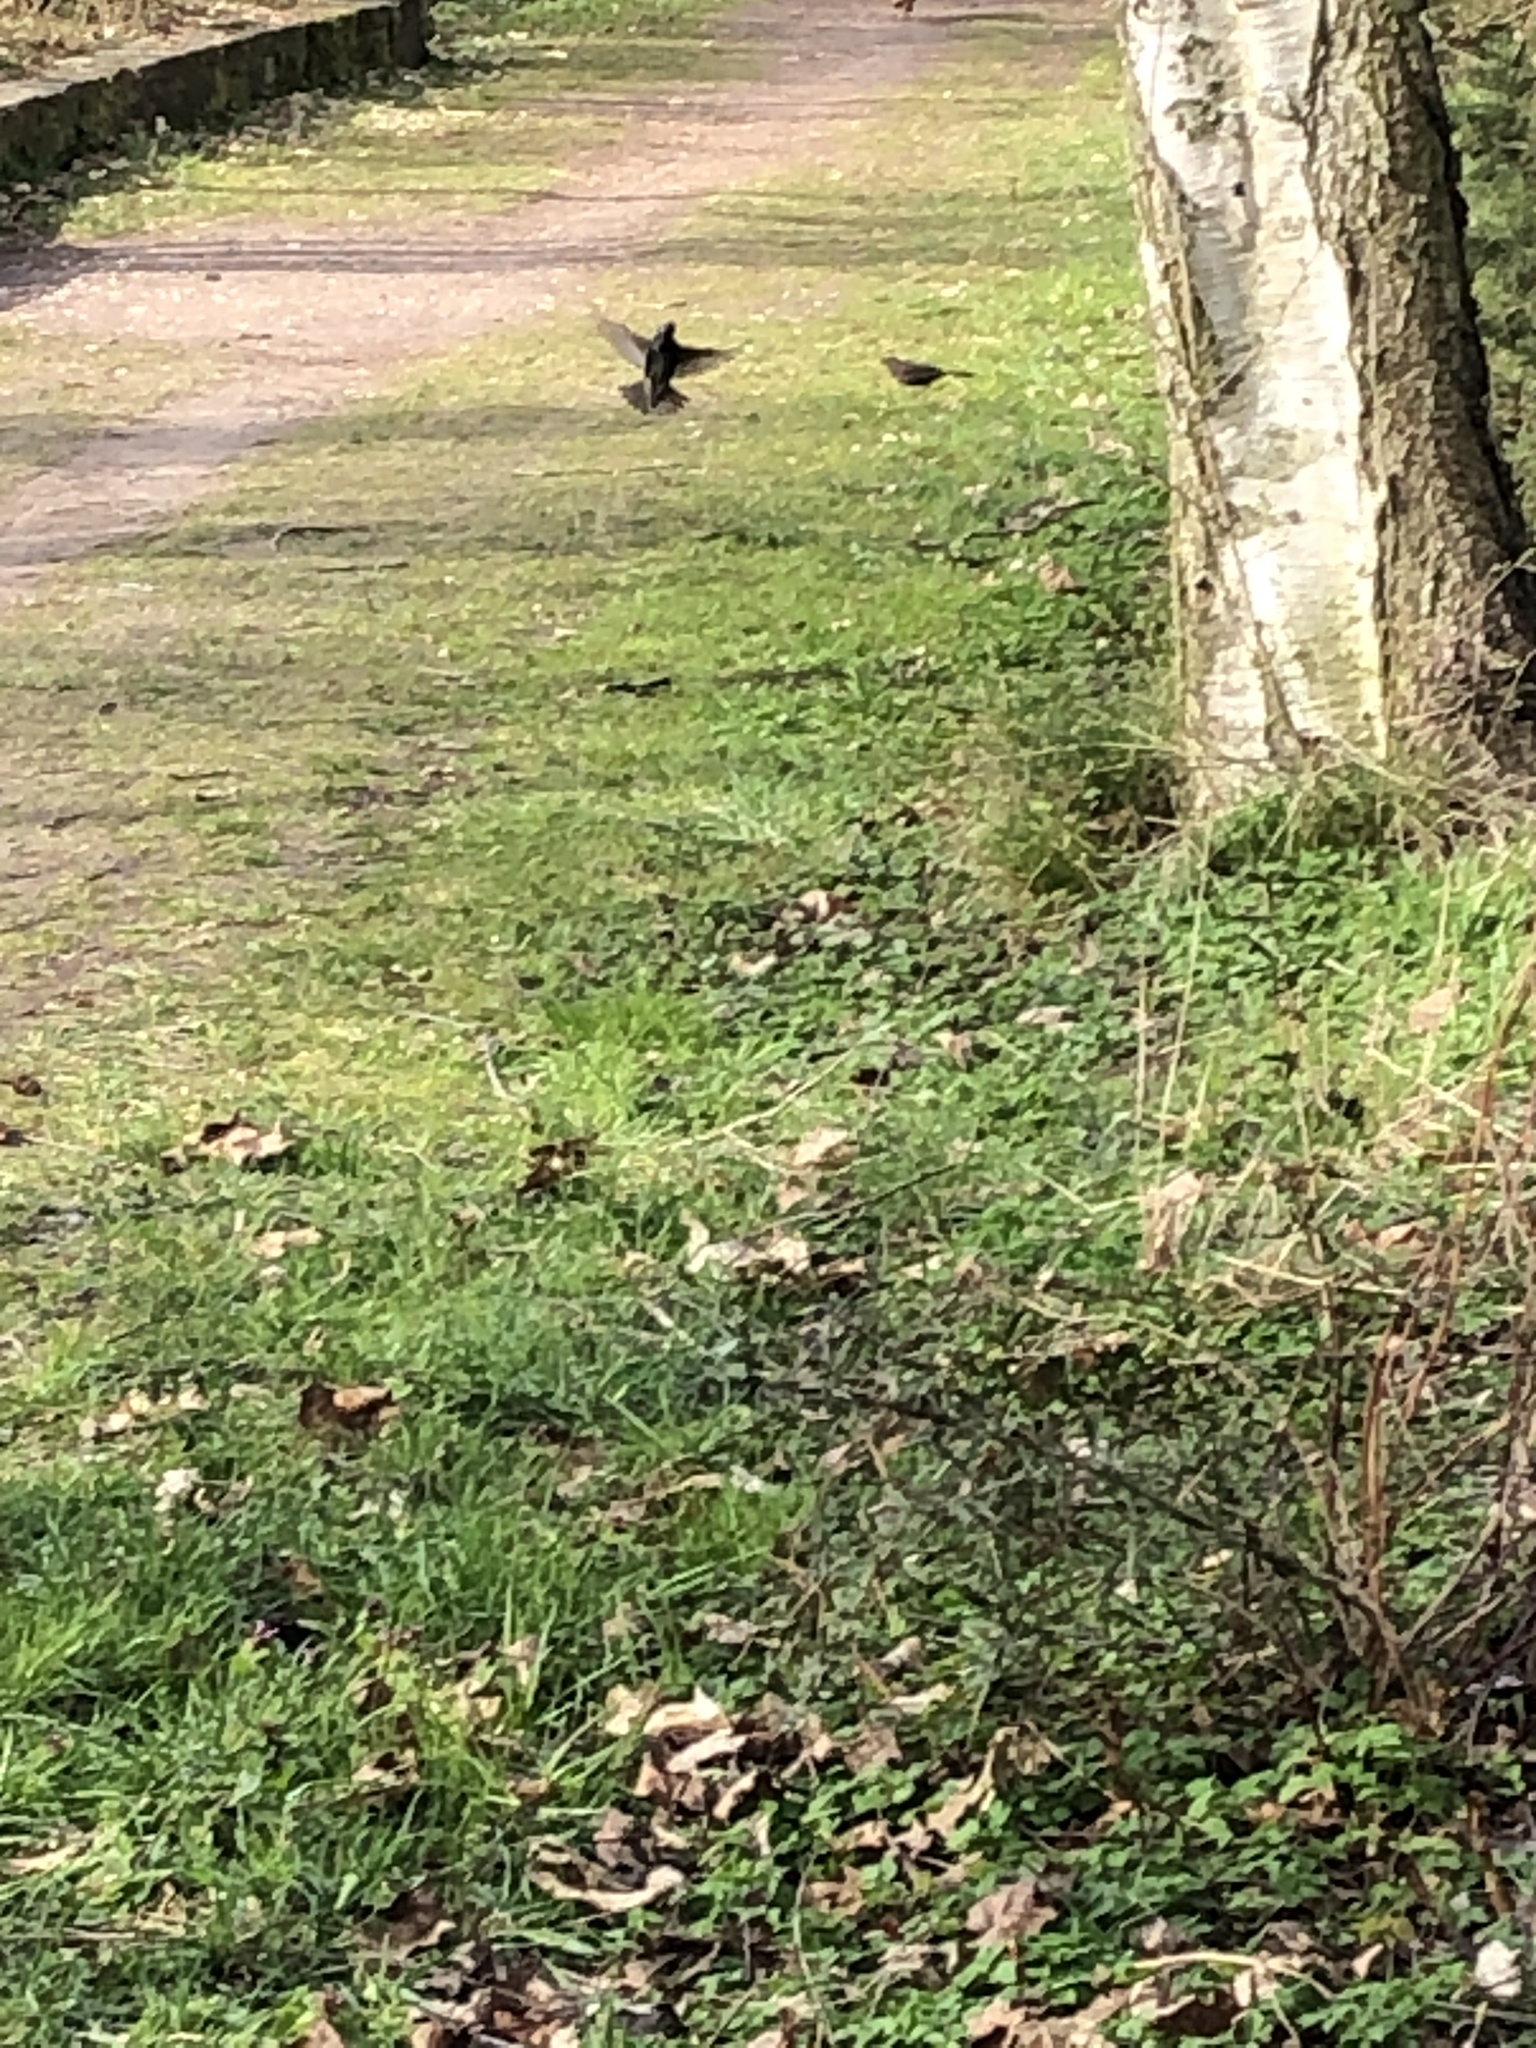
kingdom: Animalia
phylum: Chordata
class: Aves
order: Passeriformes
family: Sturnidae
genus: Sturnus
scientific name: Sturnus vulgaris
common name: Common starling
